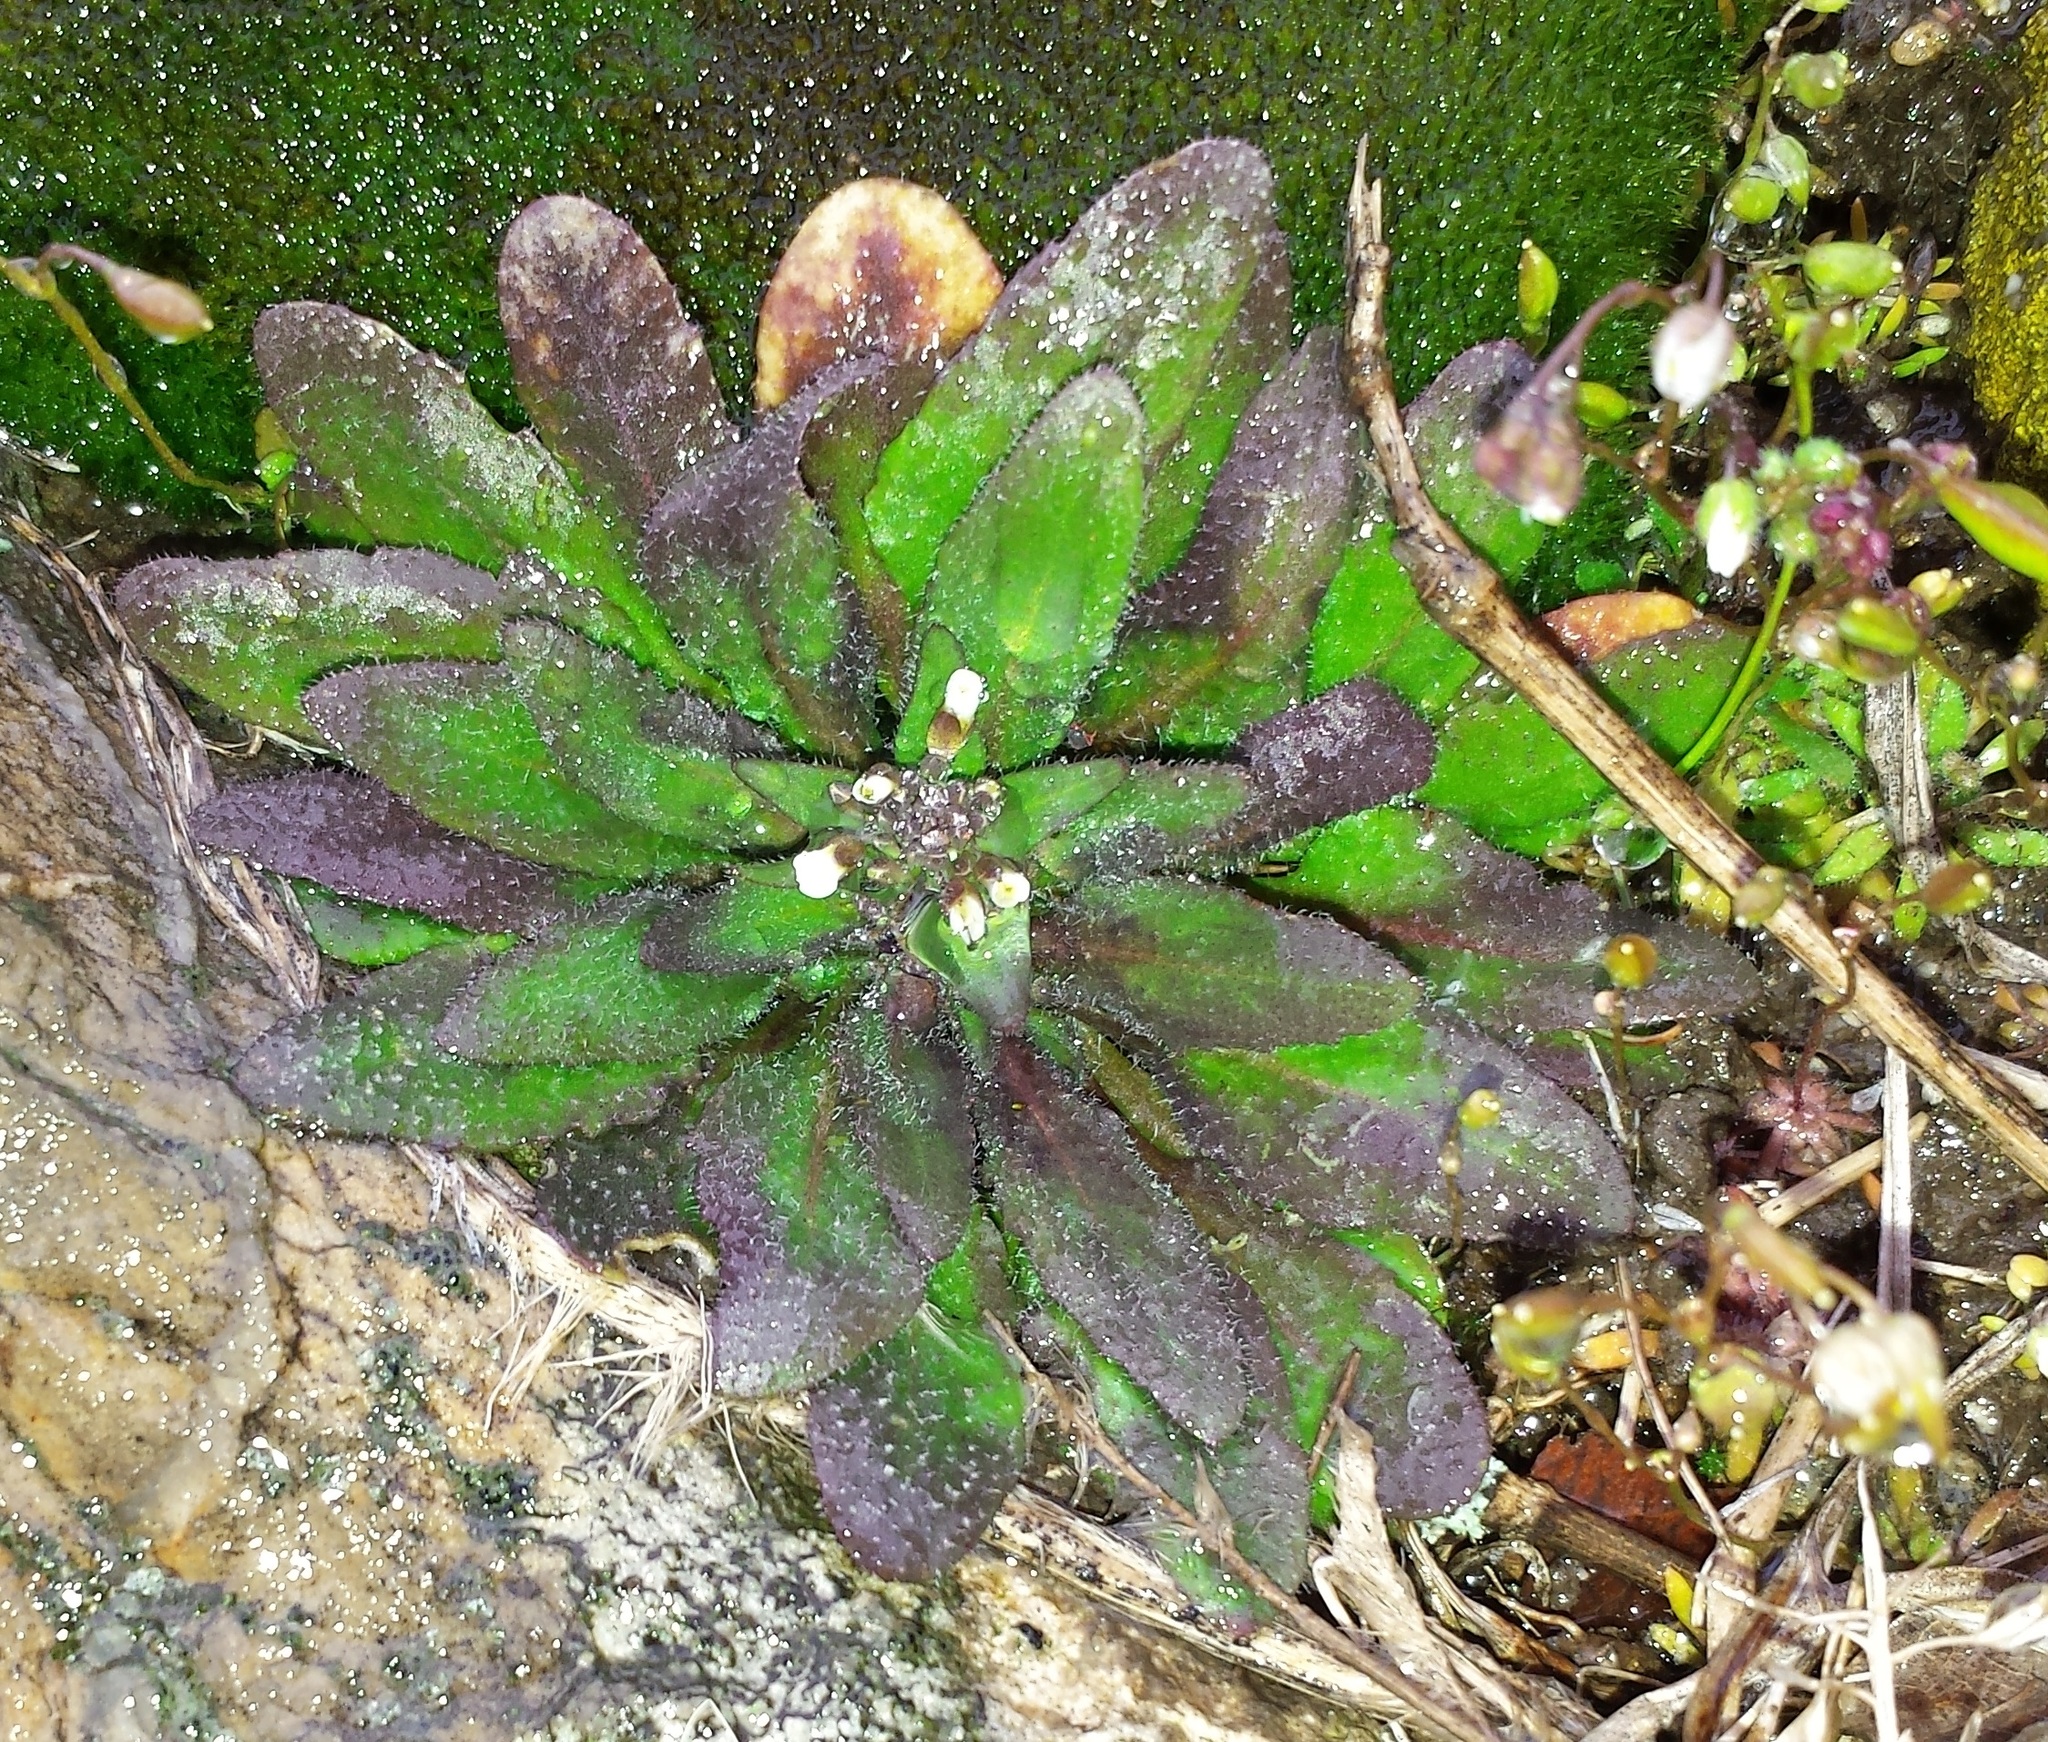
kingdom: Plantae
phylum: Tracheophyta
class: Magnoliopsida
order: Brassicales
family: Brassicaceae
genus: Arabidopsis
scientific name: Arabidopsis thaliana
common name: Thale cress
